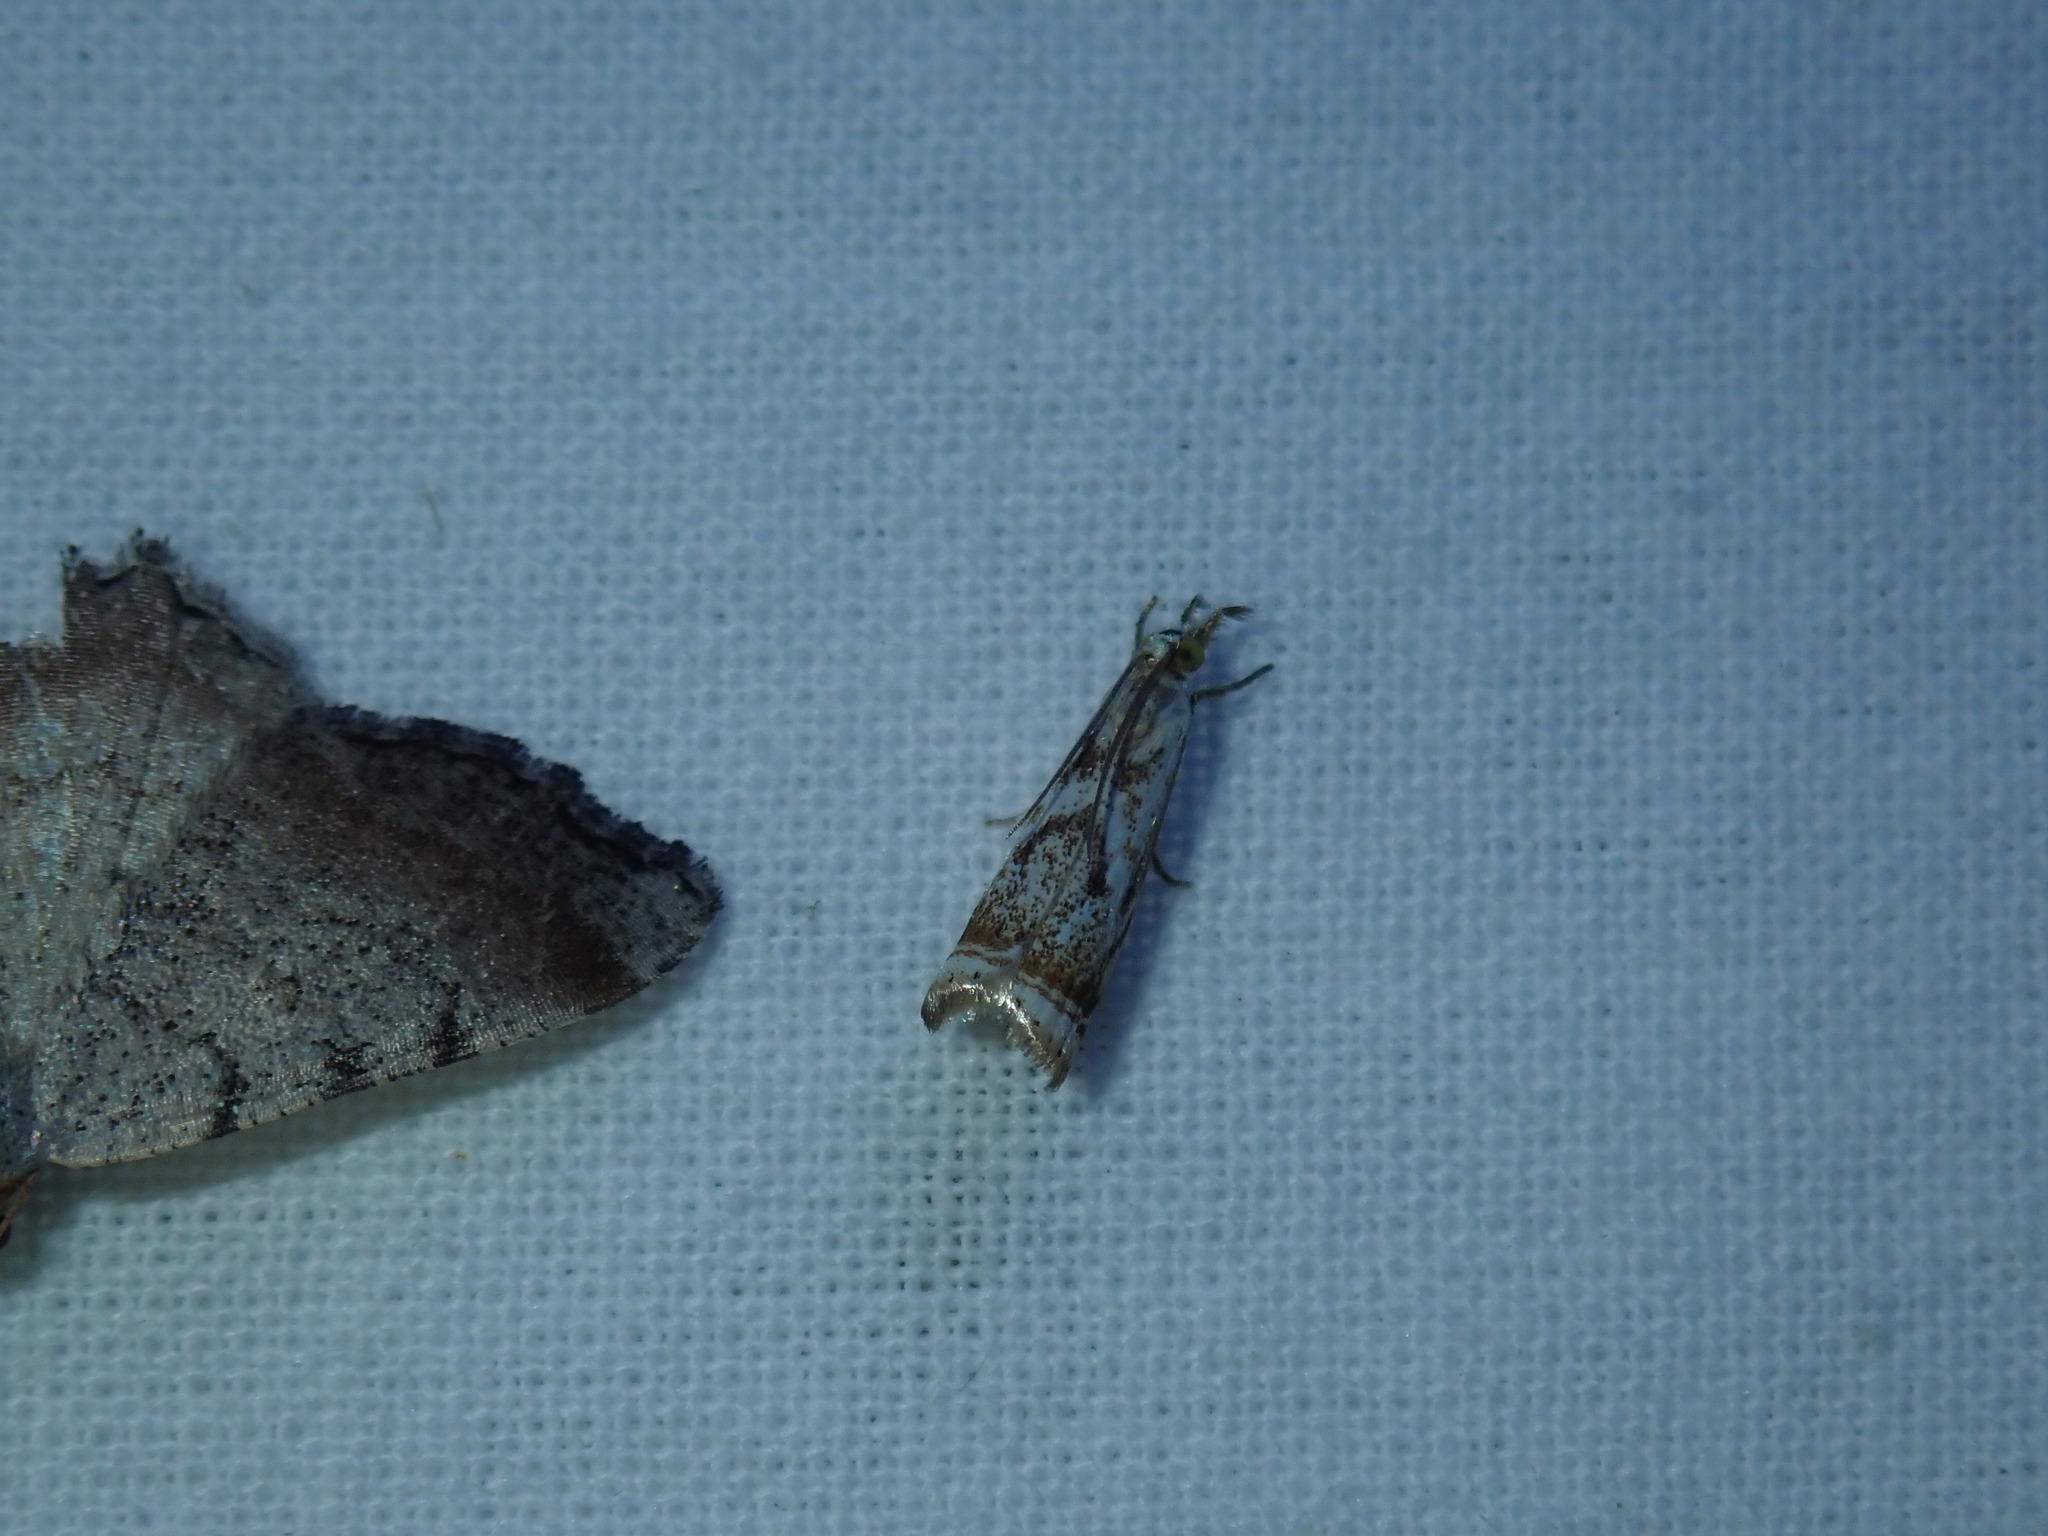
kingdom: Animalia
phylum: Arthropoda
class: Insecta
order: Lepidoptera
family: Crambidae
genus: Microcrambus
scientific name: Microcrambus elegans
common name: Elegant grass-veneer
